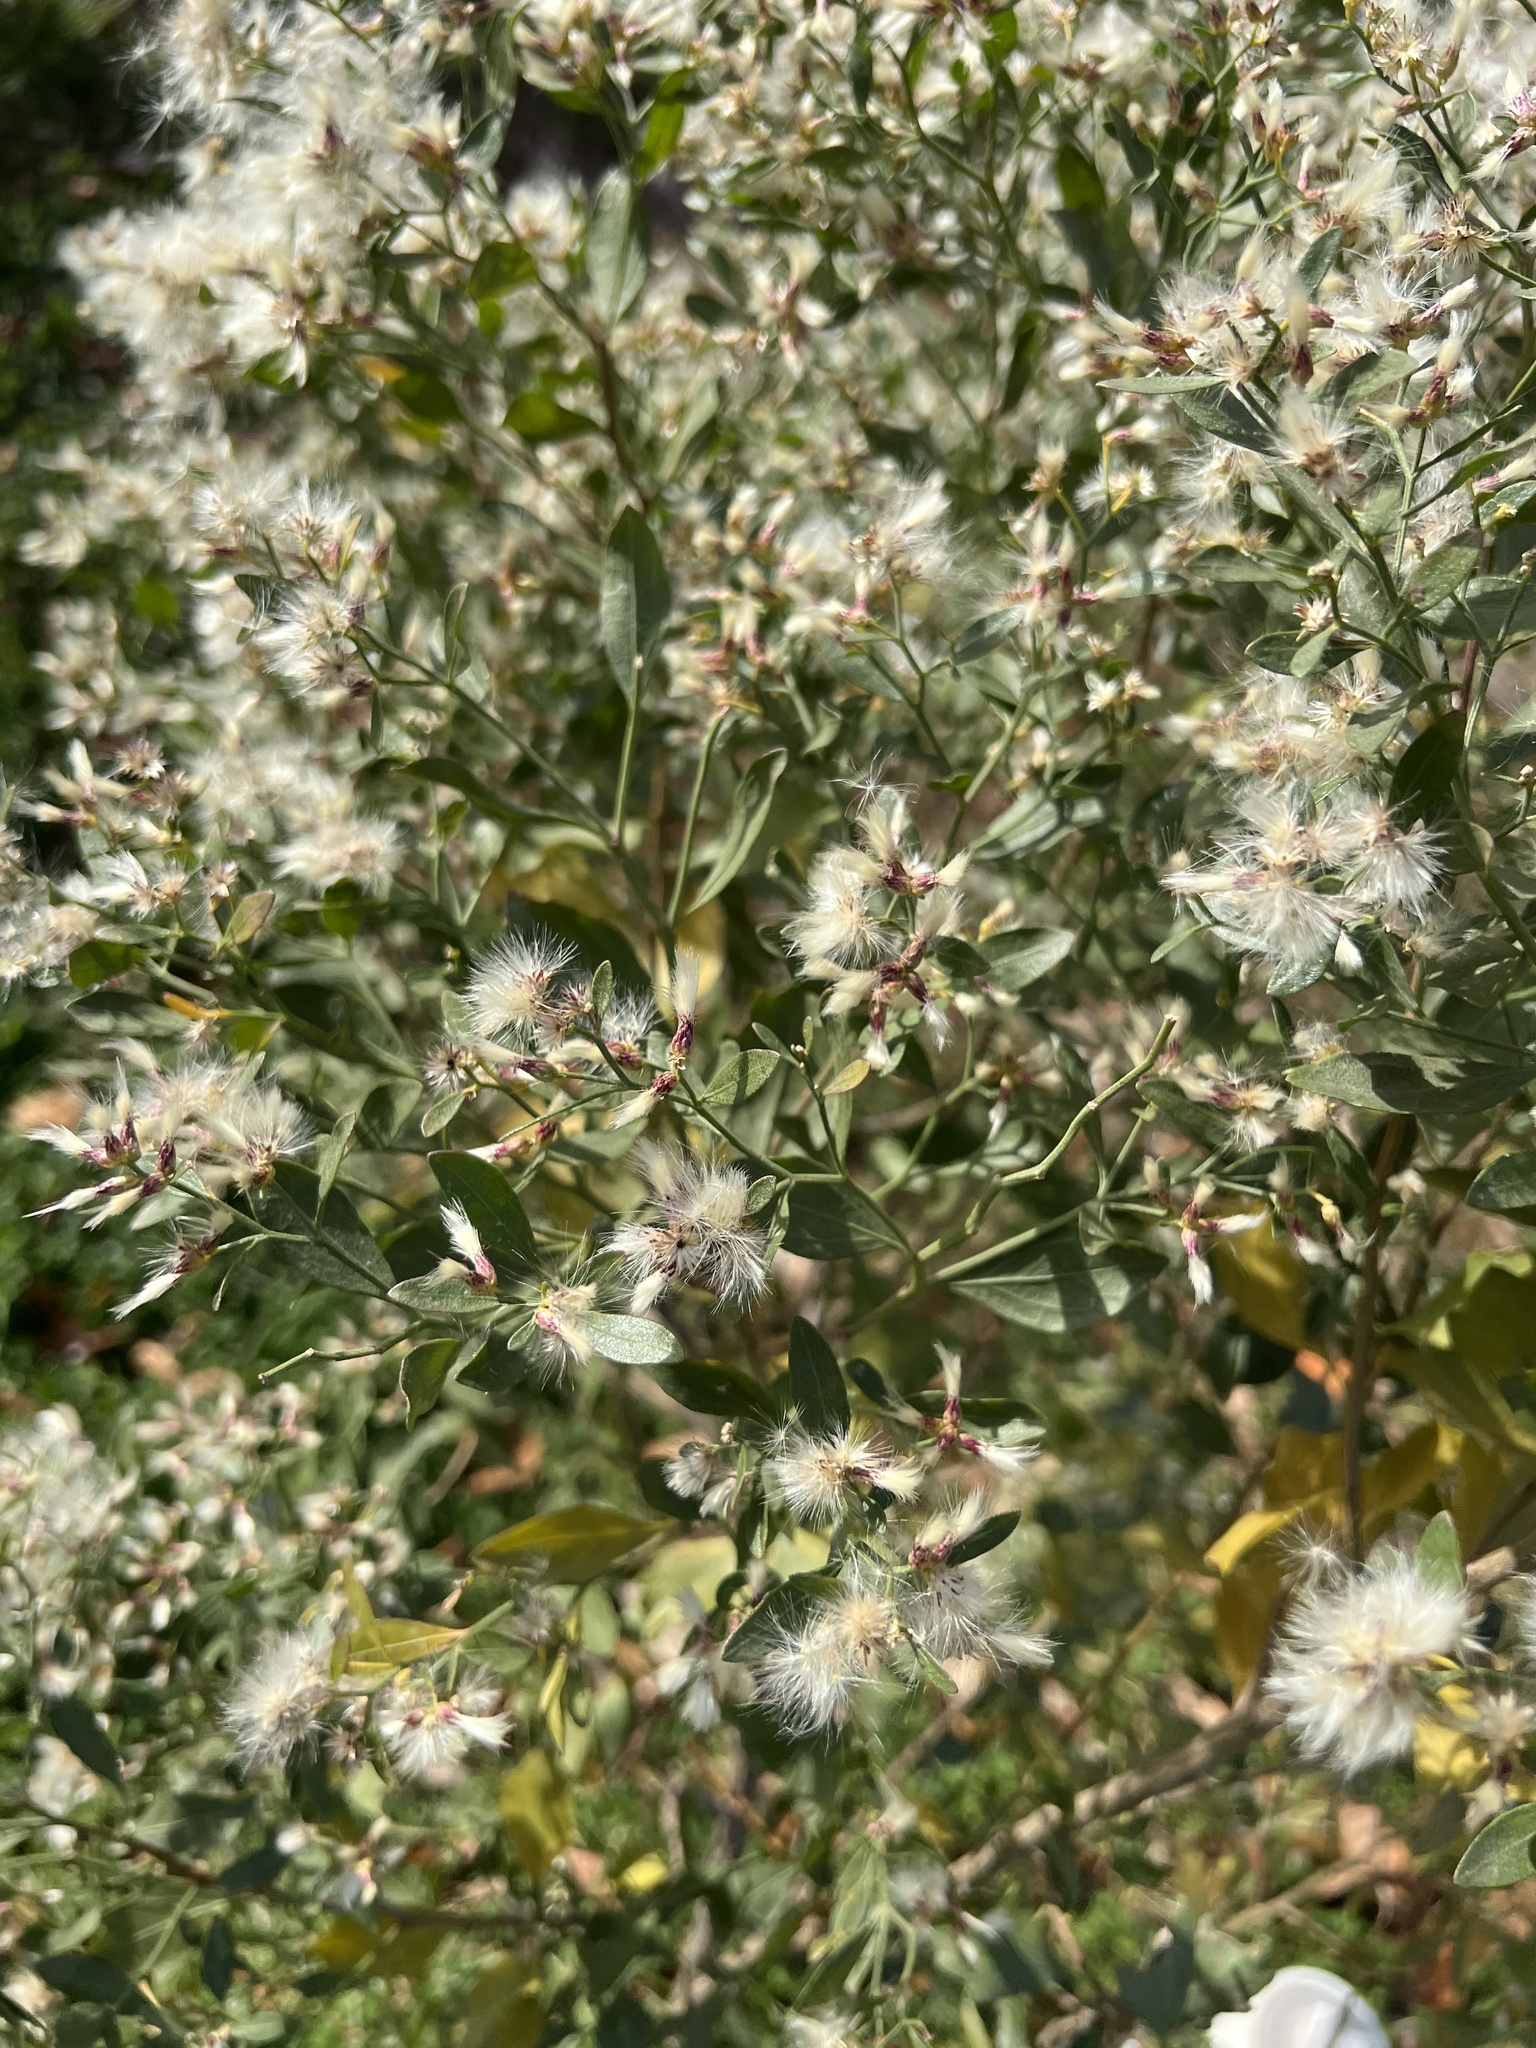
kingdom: Plantae
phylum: Tracheophyta
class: Magnoliopsida
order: Asterales
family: Asteraceae
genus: Baccharis
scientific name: Baccharis halimifolia
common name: Eastern baccharis
